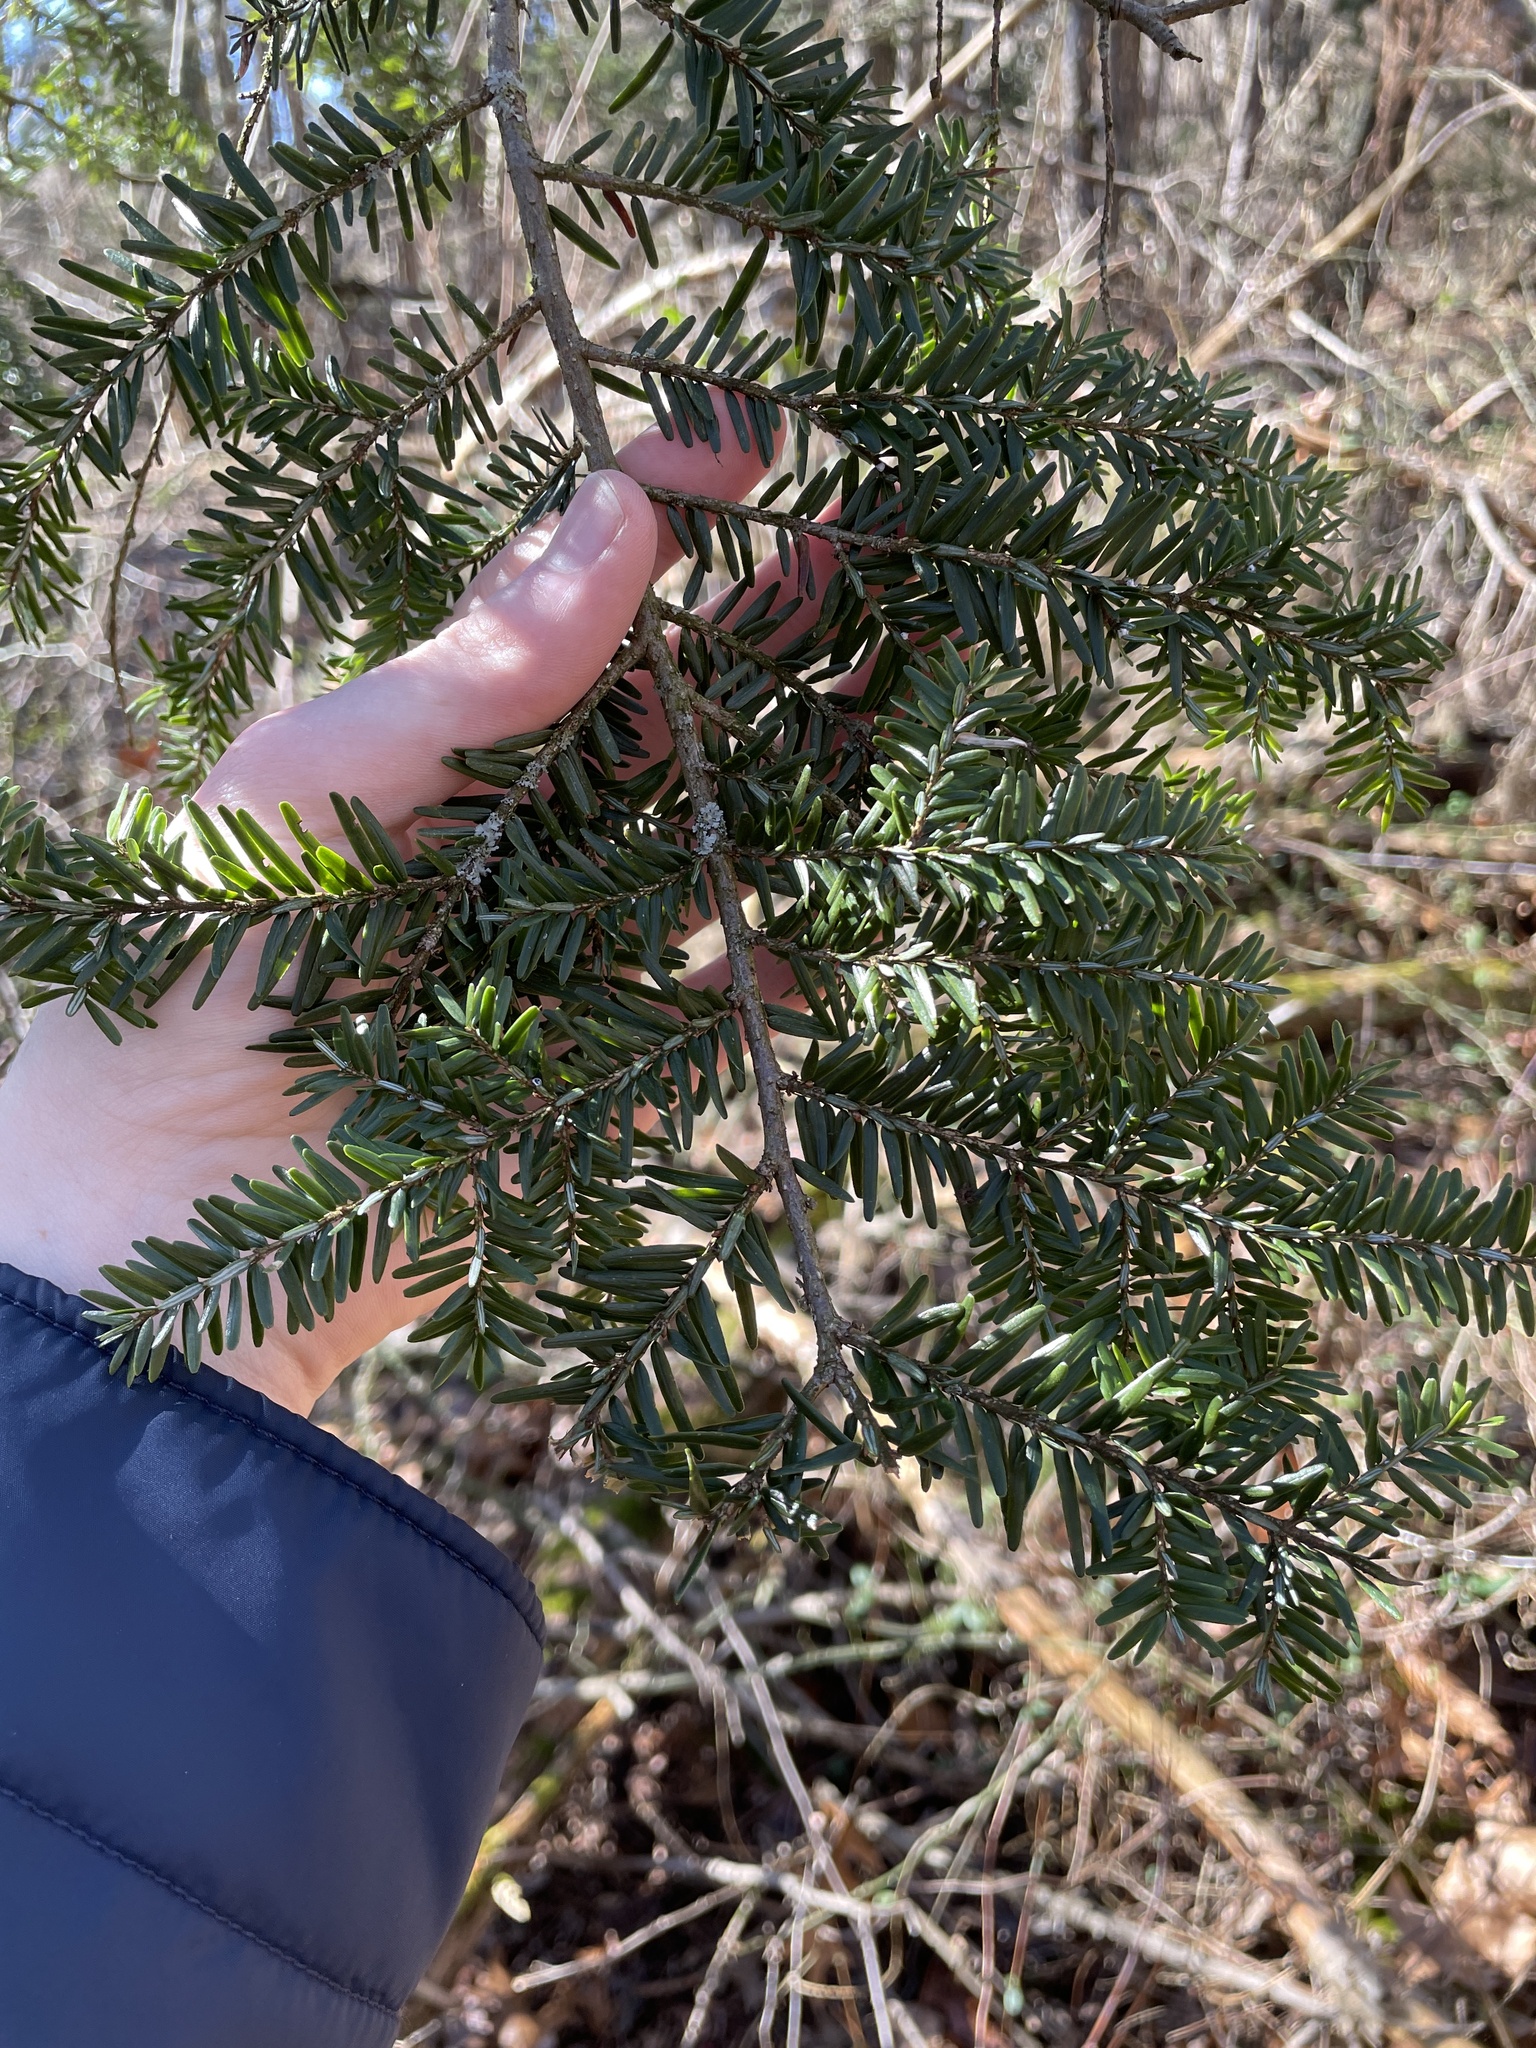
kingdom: Plantae
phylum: Tracheophyta
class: Pinopsida
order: Pinales
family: Pinaceae
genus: Tsuga
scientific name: Tsuga canadensis
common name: Eastern hemlock
